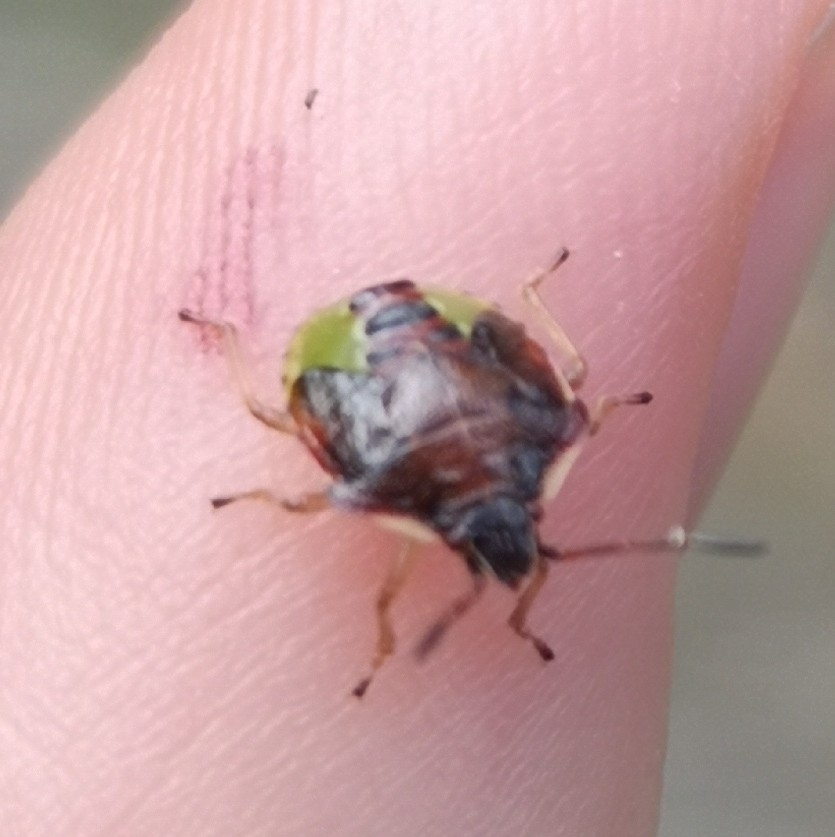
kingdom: Animalia
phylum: Arthropoda
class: Insecta
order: Hemiptera
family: Acanthosomatidae
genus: Elasmucha
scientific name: Elasmucha ferrugata
